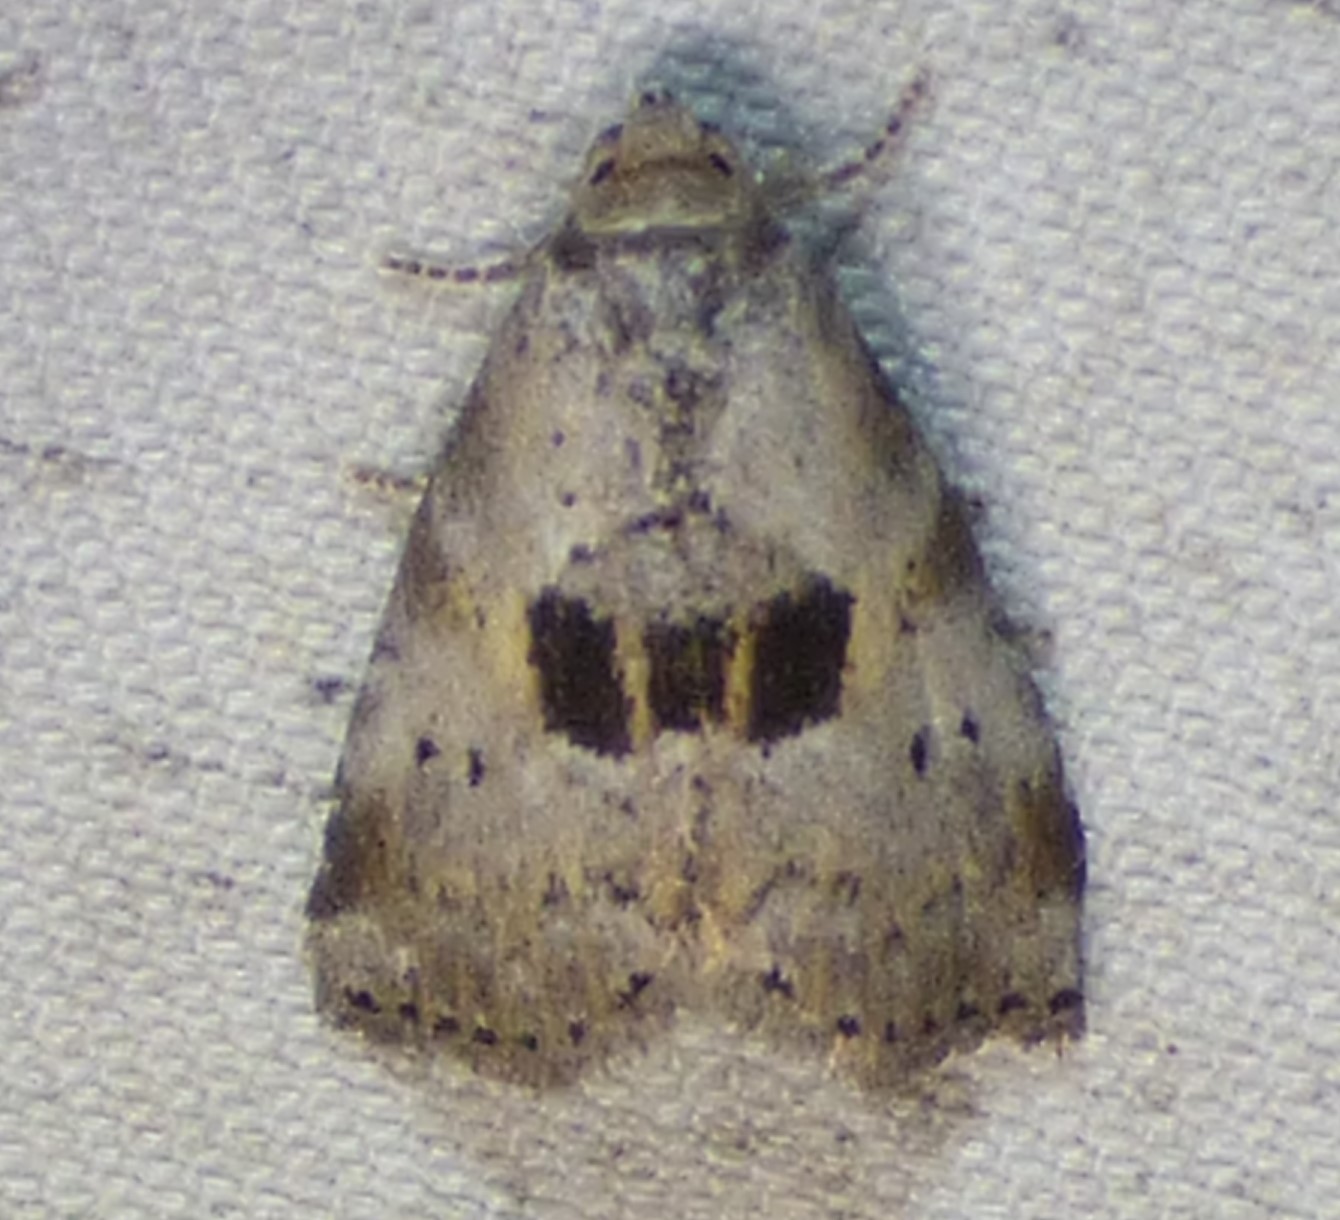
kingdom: Animalia
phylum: Arthropoda
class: Insecta
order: Lepidoptera
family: Erebidae
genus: Hyperstrotia
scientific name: Hyperstrotia secta
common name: Black-patched graylet
